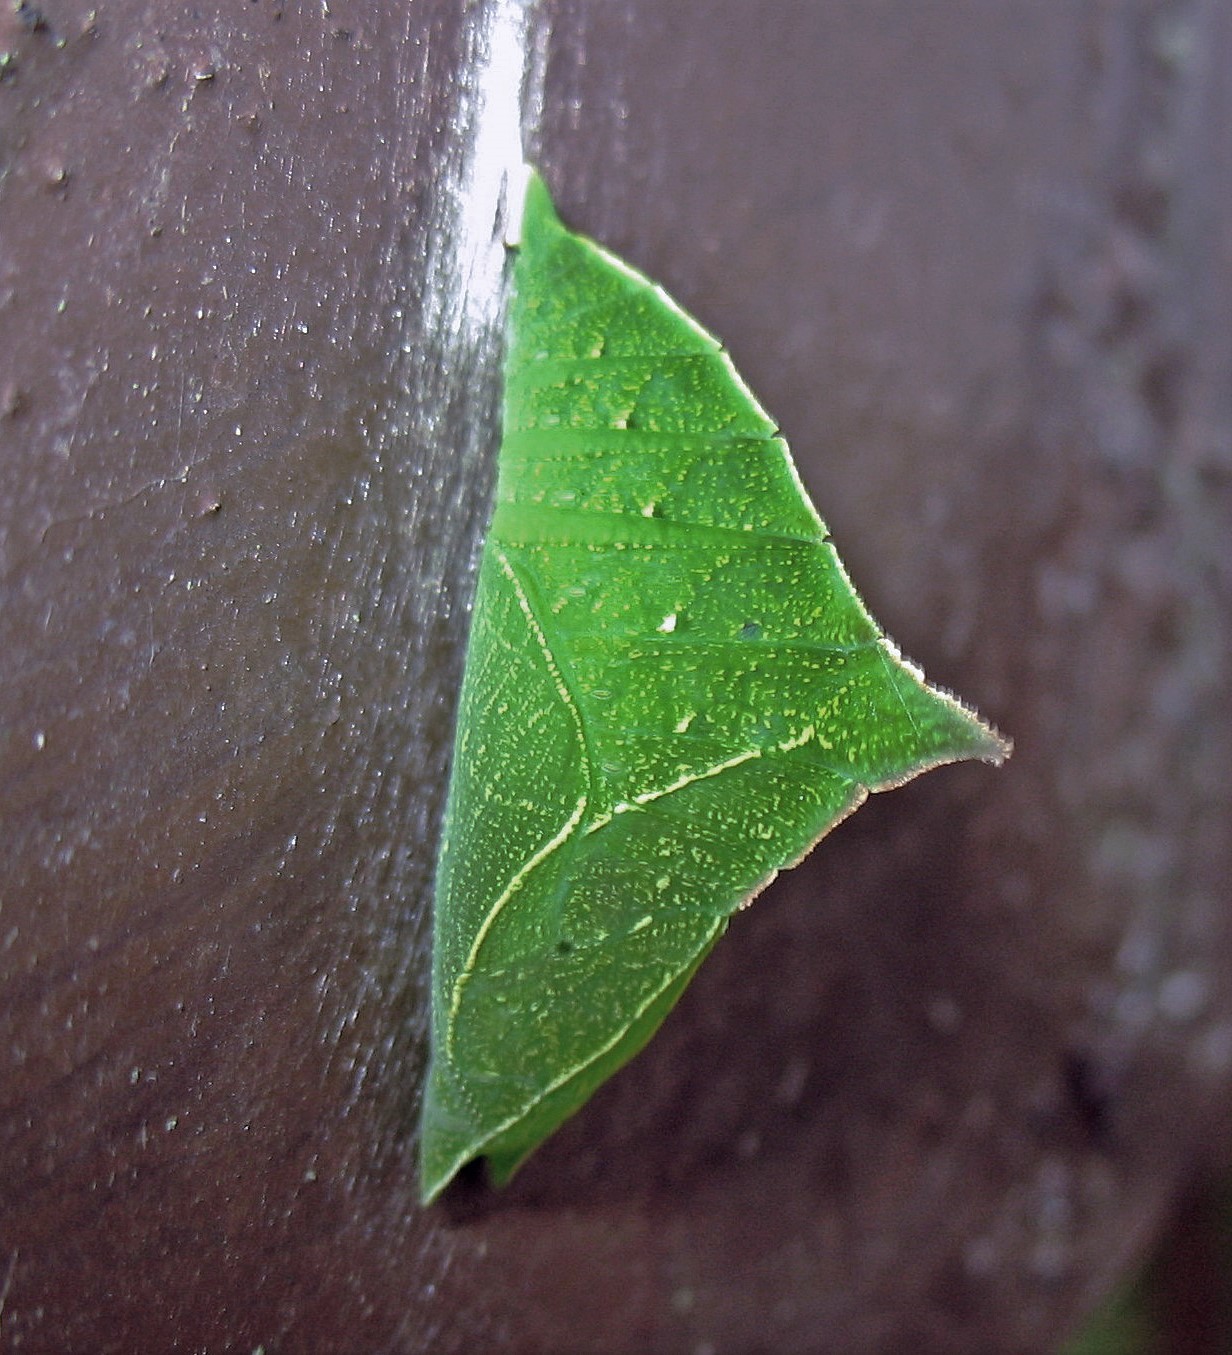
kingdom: Animalia
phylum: Arthropoda
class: Insecta
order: Lepidoptera
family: Nymphalidae
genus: Doxocopa
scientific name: Doxocopa laurentia
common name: Turquoise emperor
